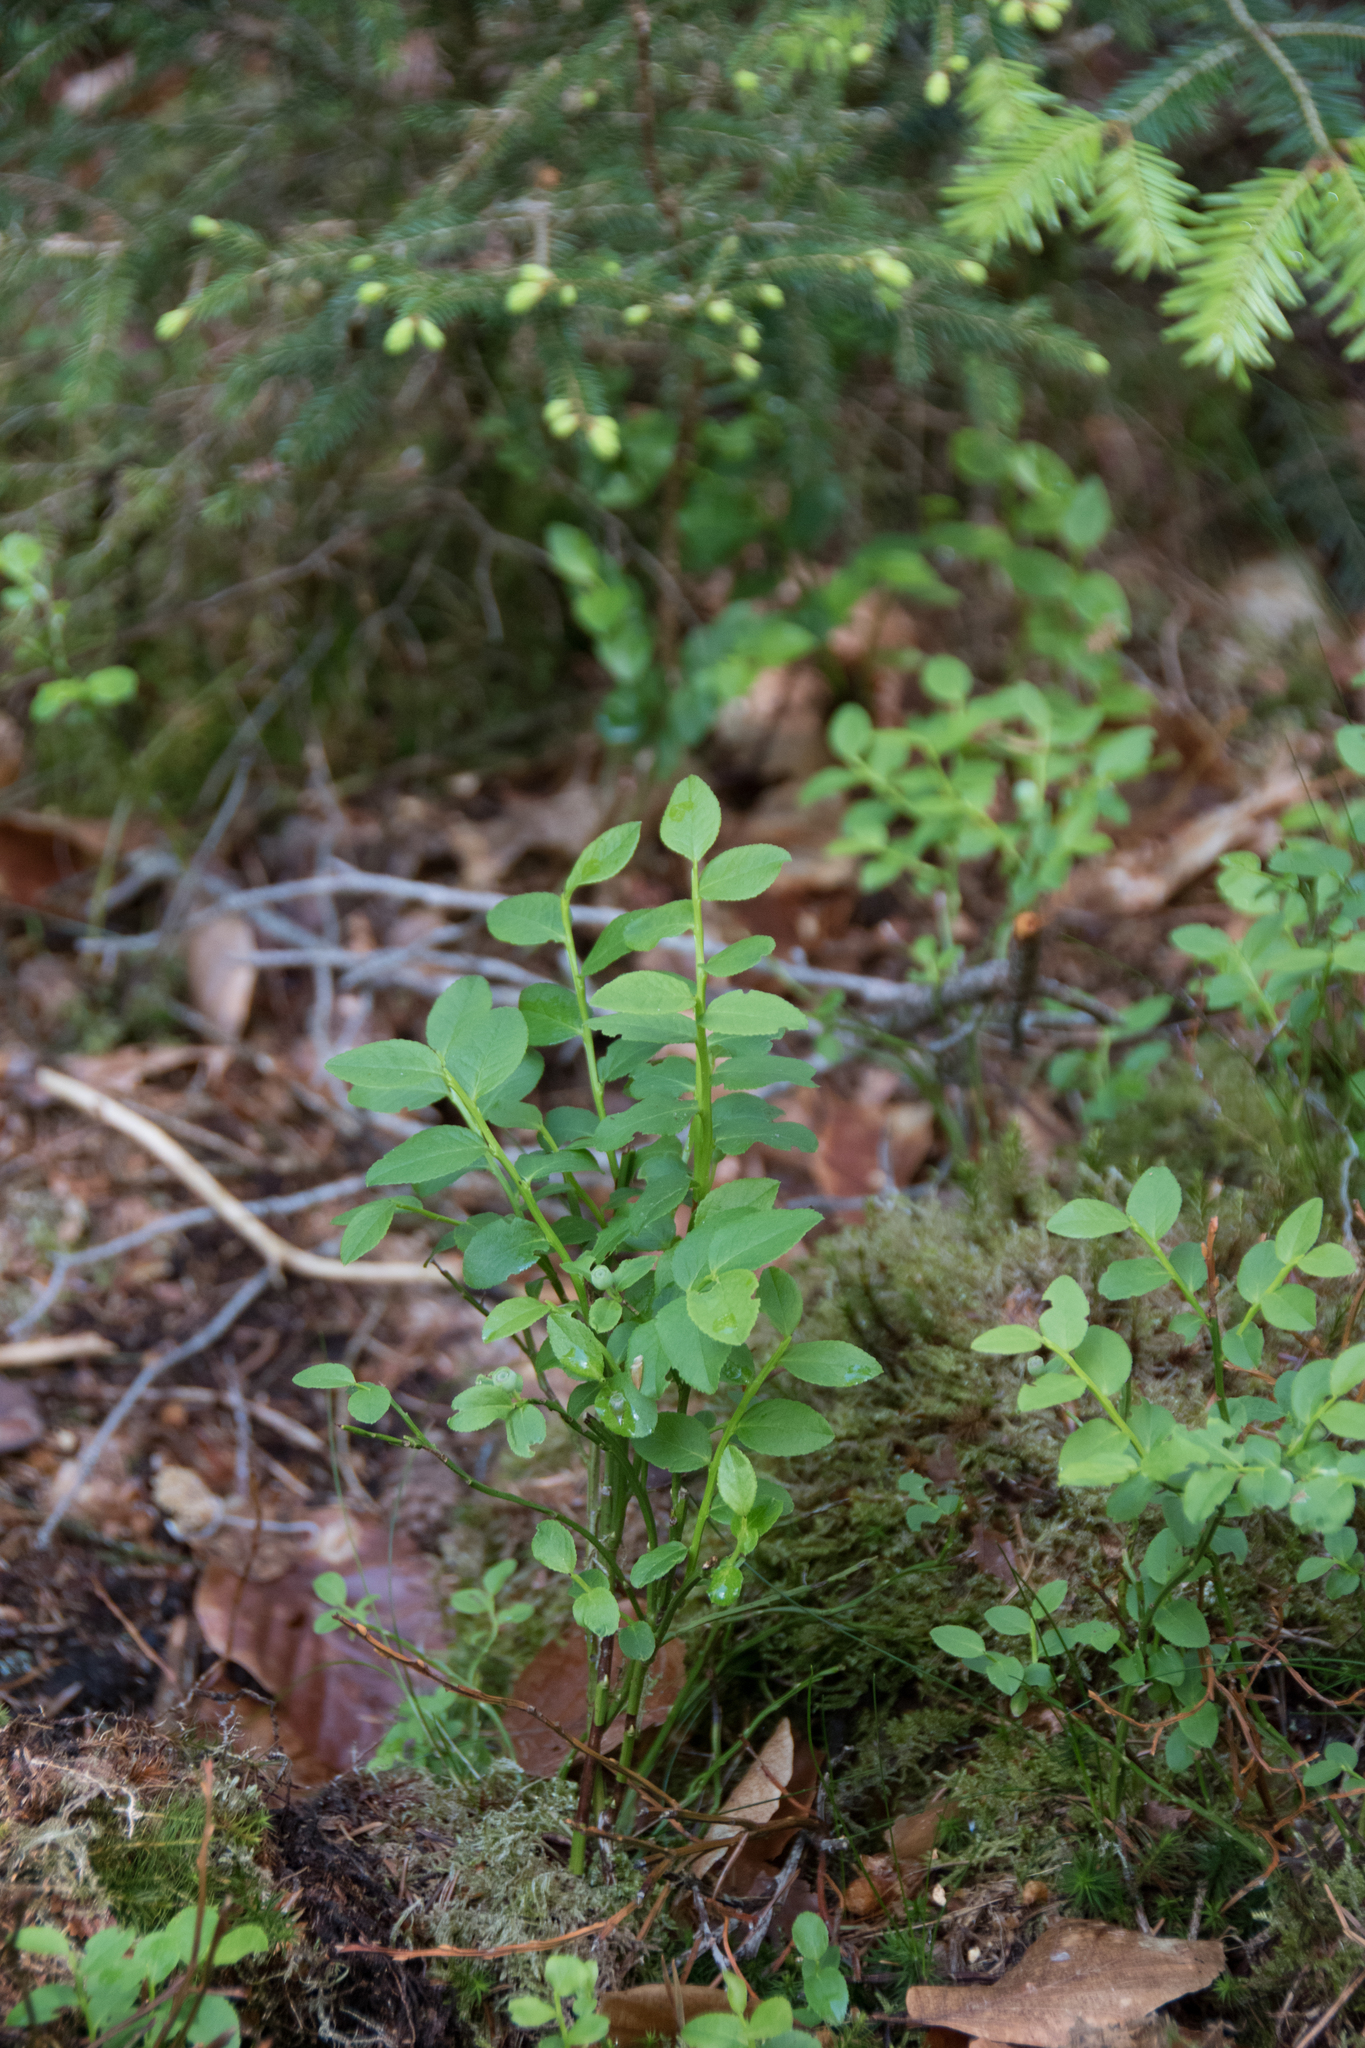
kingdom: Plantae
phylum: Tracheophyta
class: Magnoliopsida
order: Ericales
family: Ericaceae
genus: Vaccinium
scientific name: Vaccinium myrtillus
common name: Bilberry
